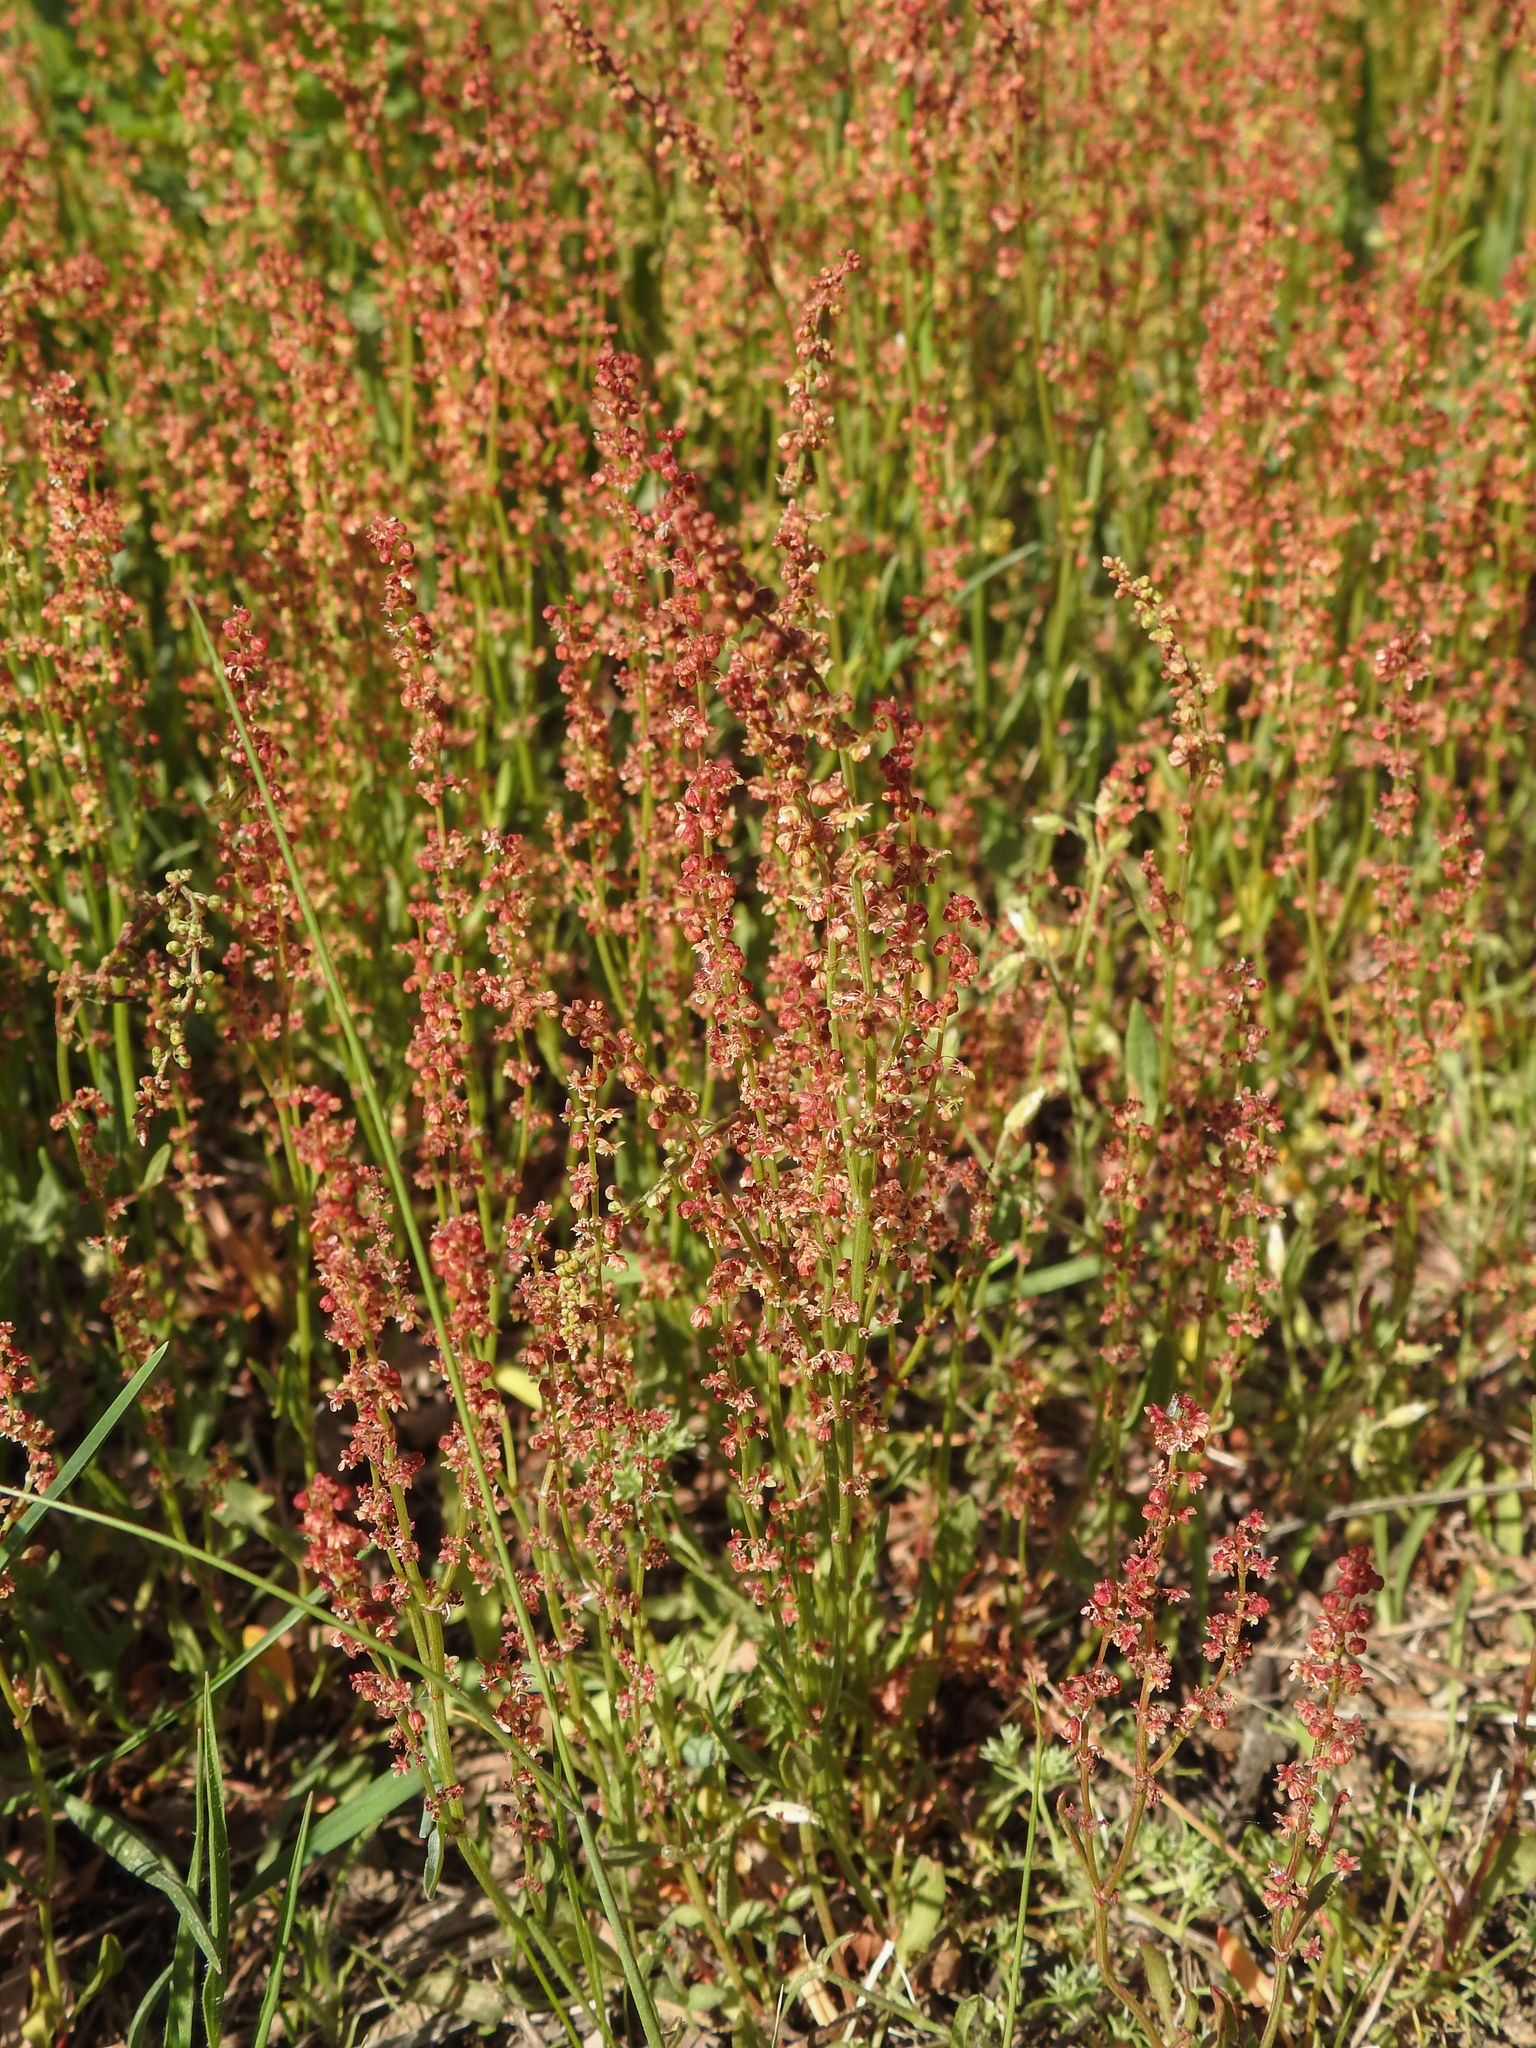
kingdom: Plantae
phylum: Tracheophyta
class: Magnoliopsida
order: Caryophyllales
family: Polygonaceae
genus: Rumex
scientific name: Rumex acetosella
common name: Common sheep sorrel
